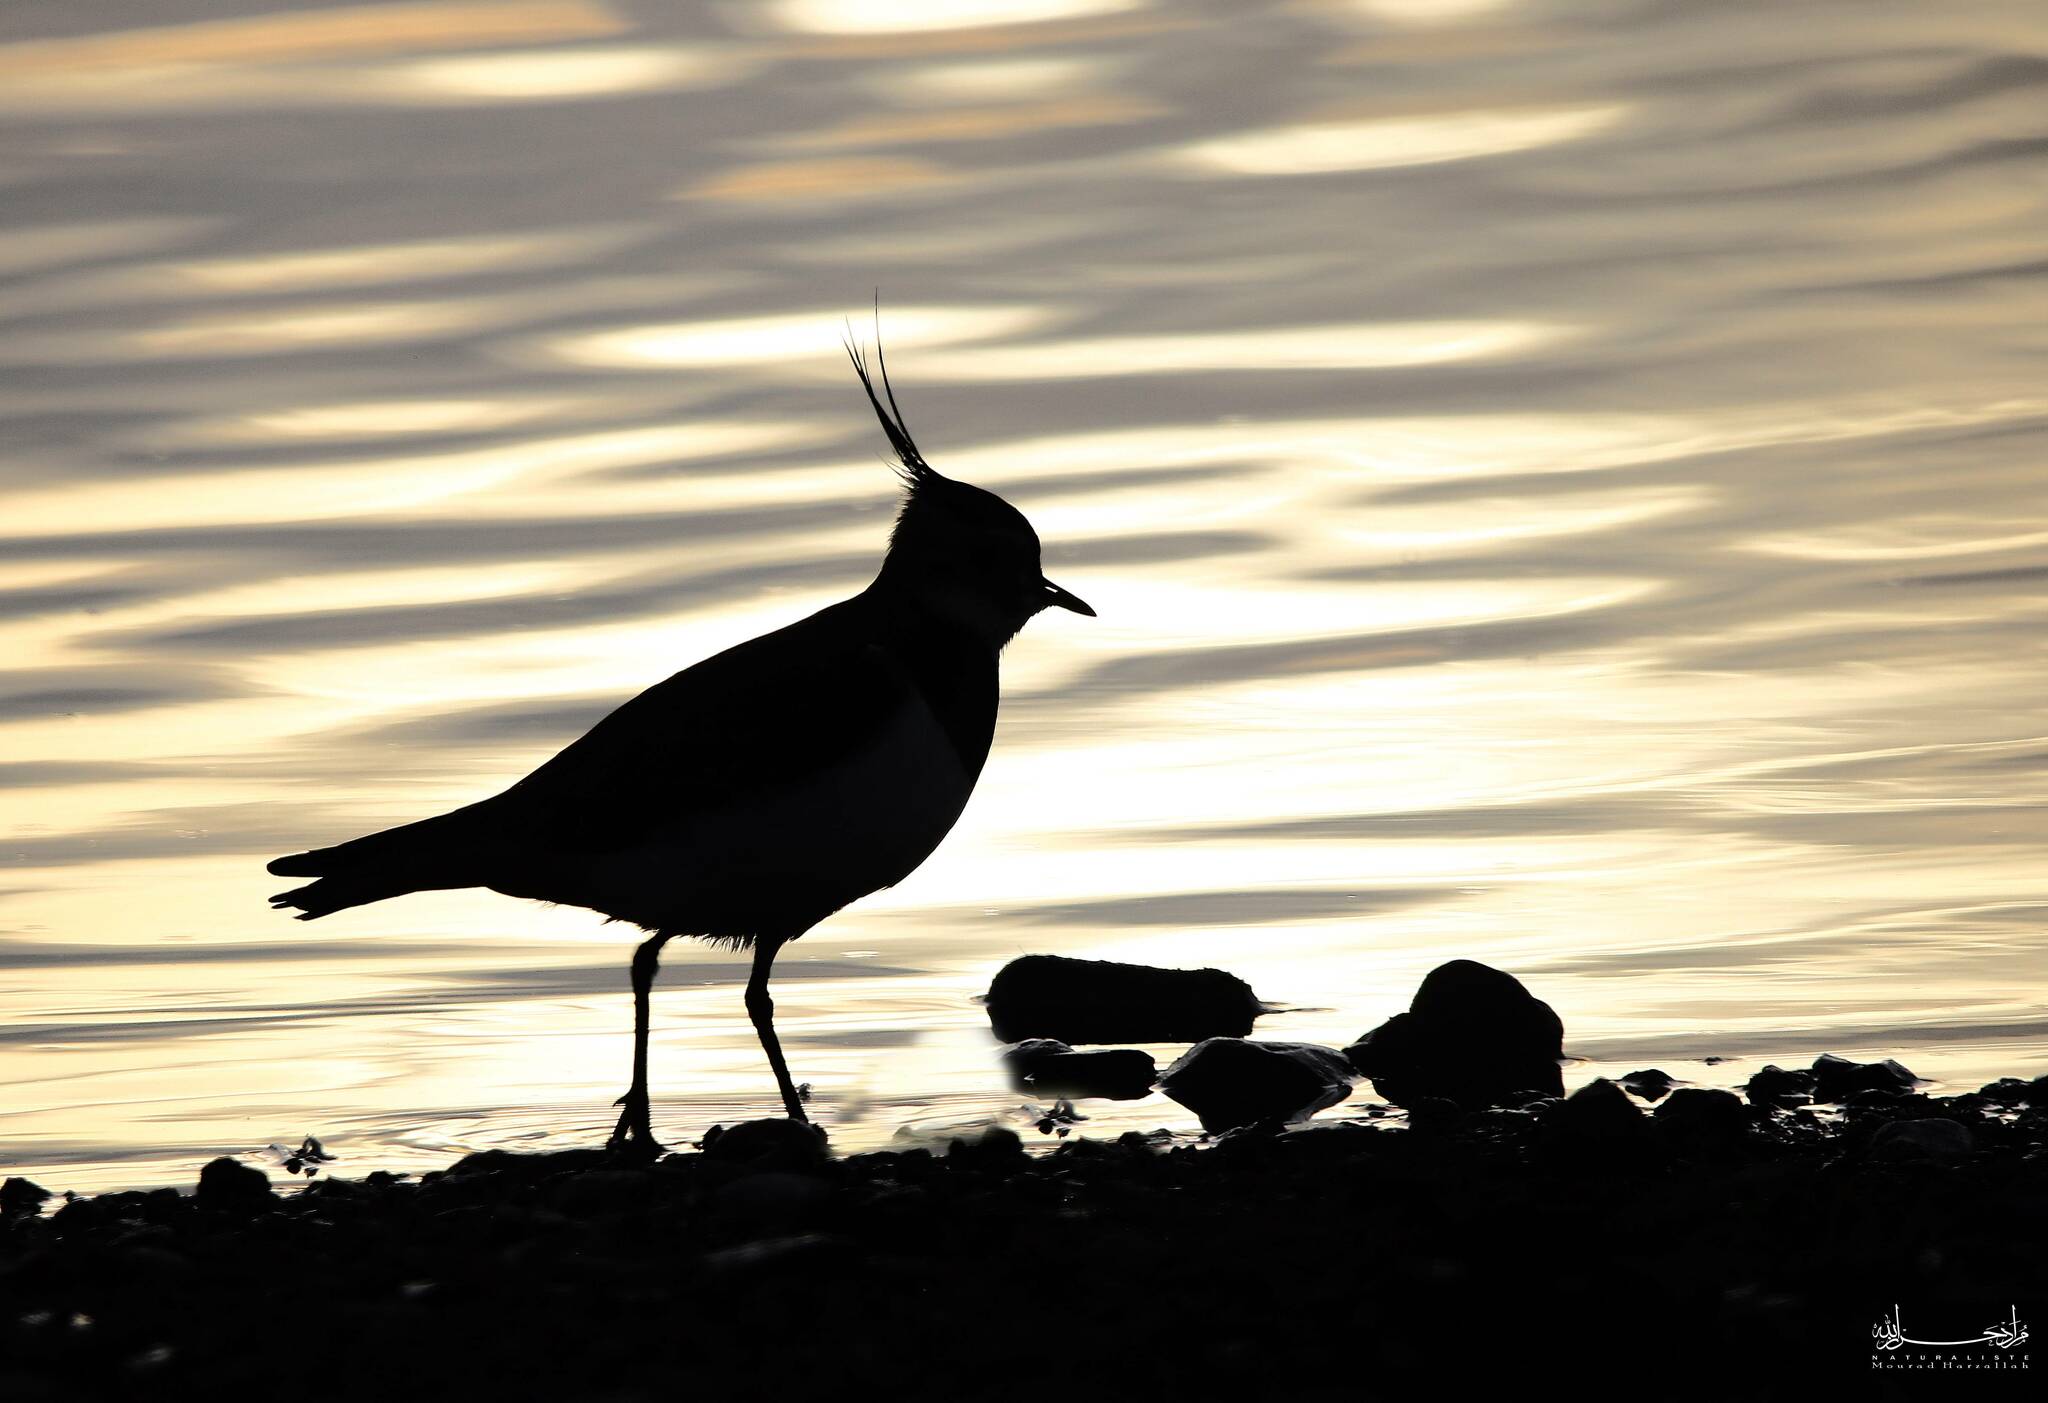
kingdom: Animalia
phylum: Chordata
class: Aves
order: Charadriiformes
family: Charadriidae
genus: Vanellus
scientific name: Vanellus vanellus
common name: Northern lapwing
